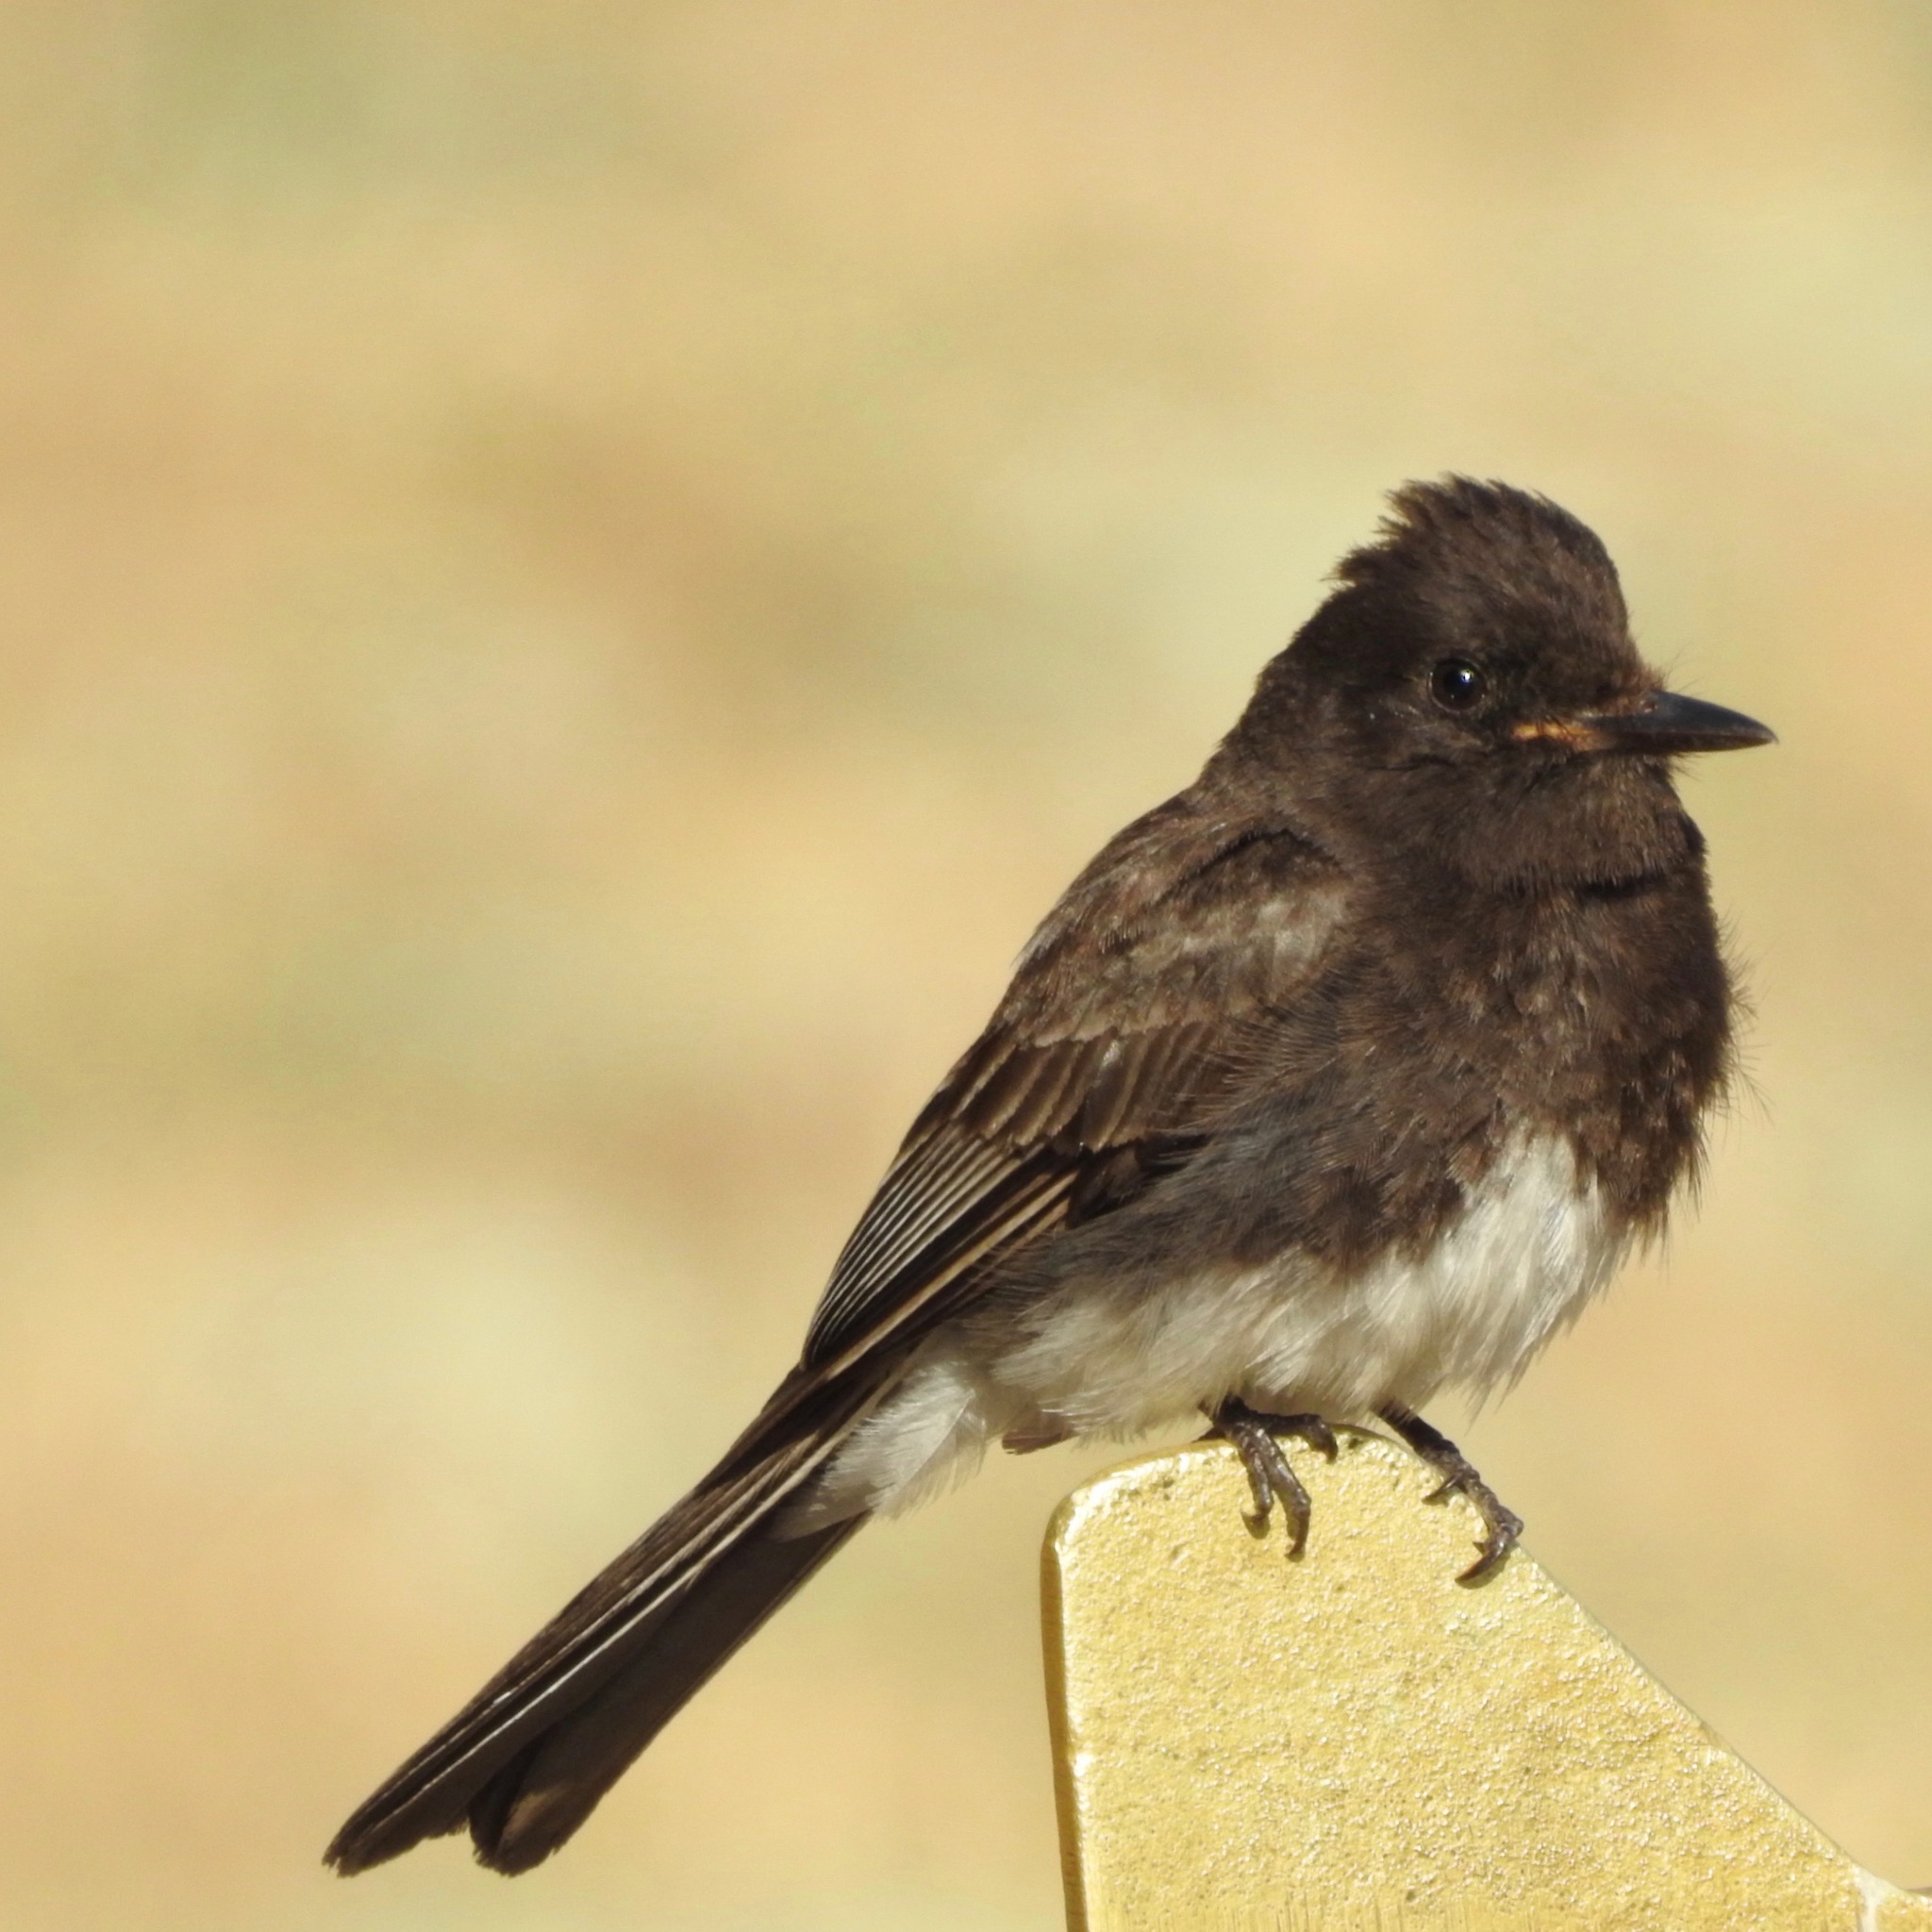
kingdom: Animalia
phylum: Chordata
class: Aves
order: Passeriformes
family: Tyrannidae
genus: Sayornis
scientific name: Sayornis nigricans
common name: Black phoebe
